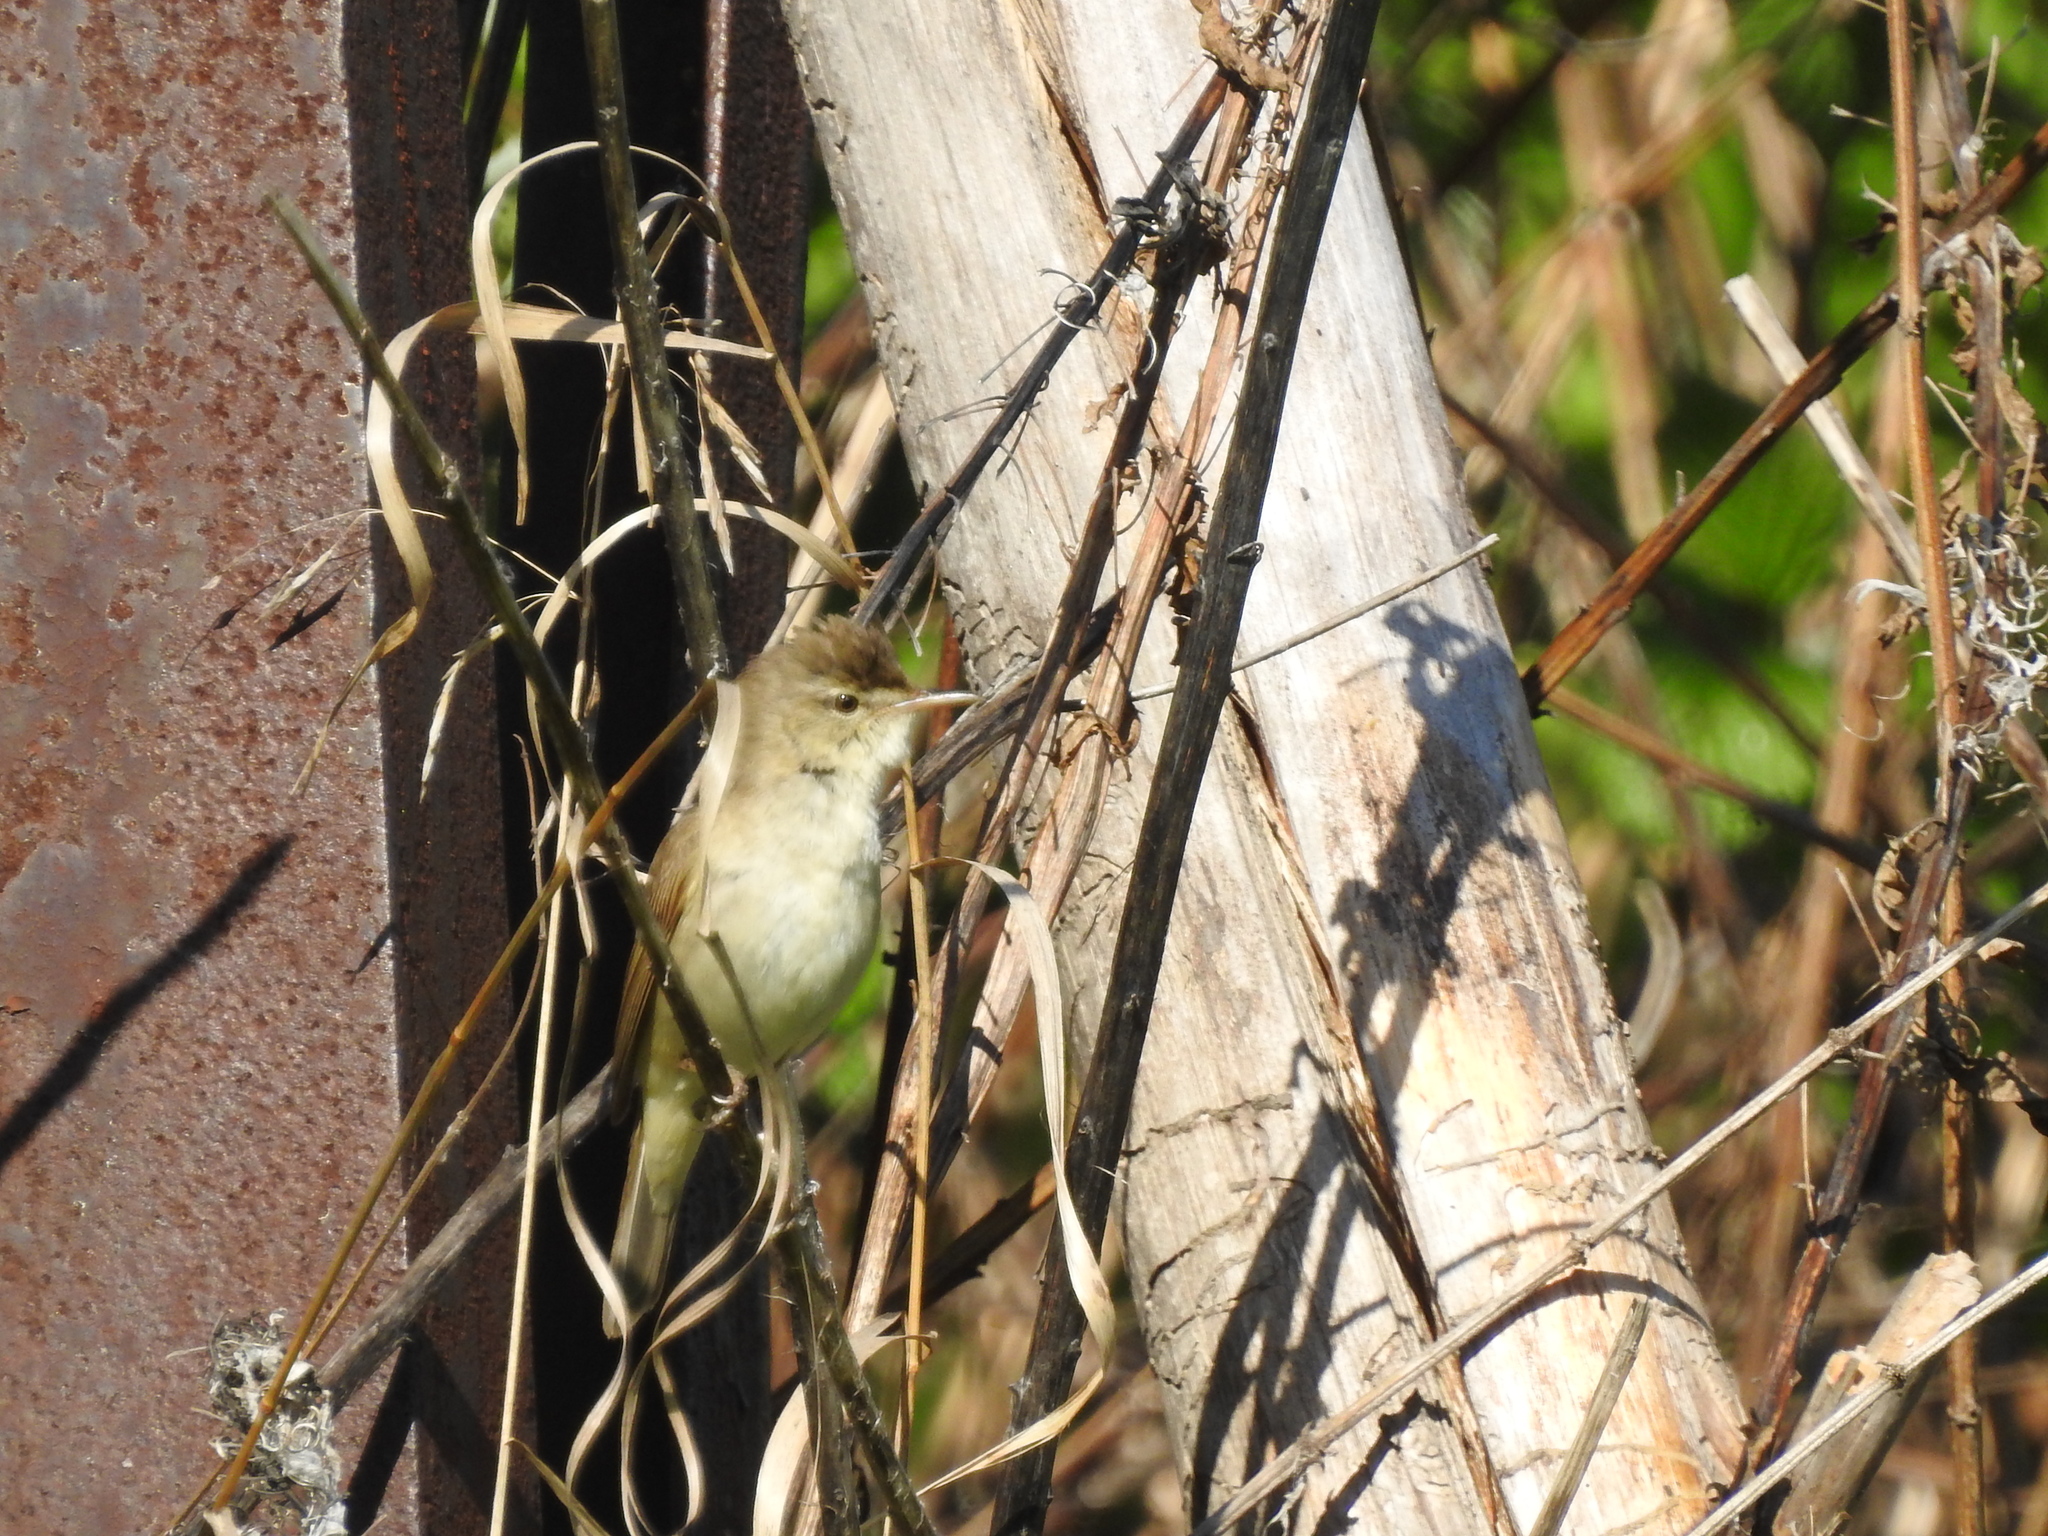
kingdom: Animalia
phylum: Chordata
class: Aves
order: Passeriformes
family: Acrocephalidae
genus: Acrocephalus
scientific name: Acrocephalus dumetorum
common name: Blyth's reed warbler
